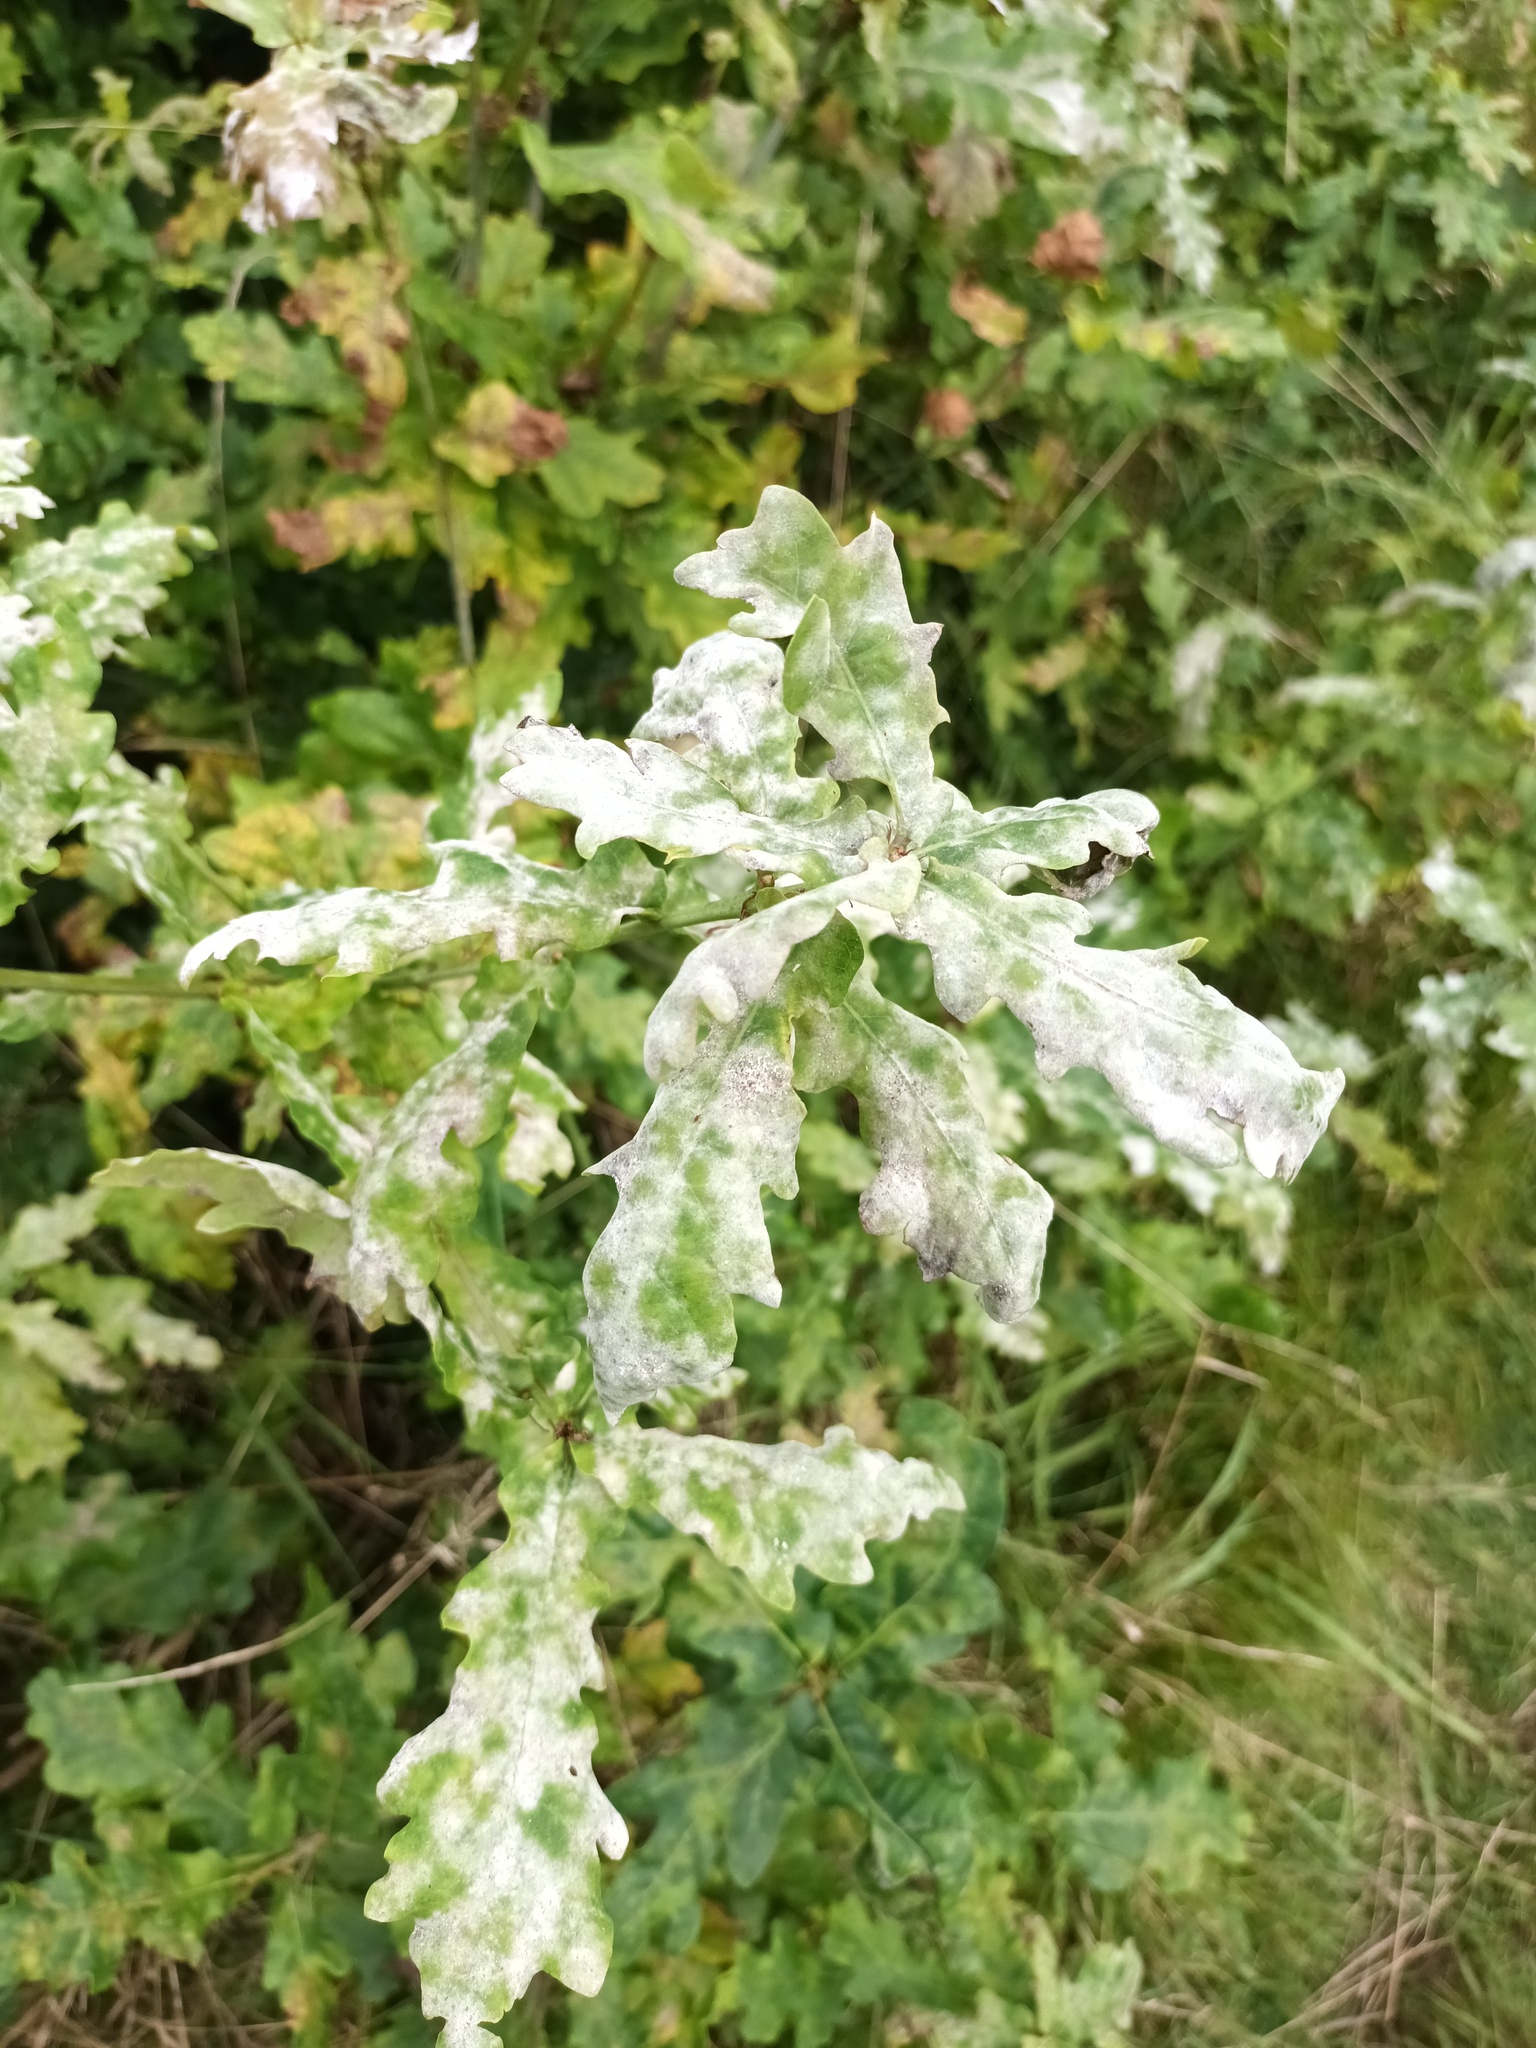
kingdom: Fungi
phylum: Ascomycota
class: Leotiomycetes
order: Helotiales
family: Erysiphaceae
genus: Erysiphe
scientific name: Erysiphe alphitoides
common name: Oak mildew
